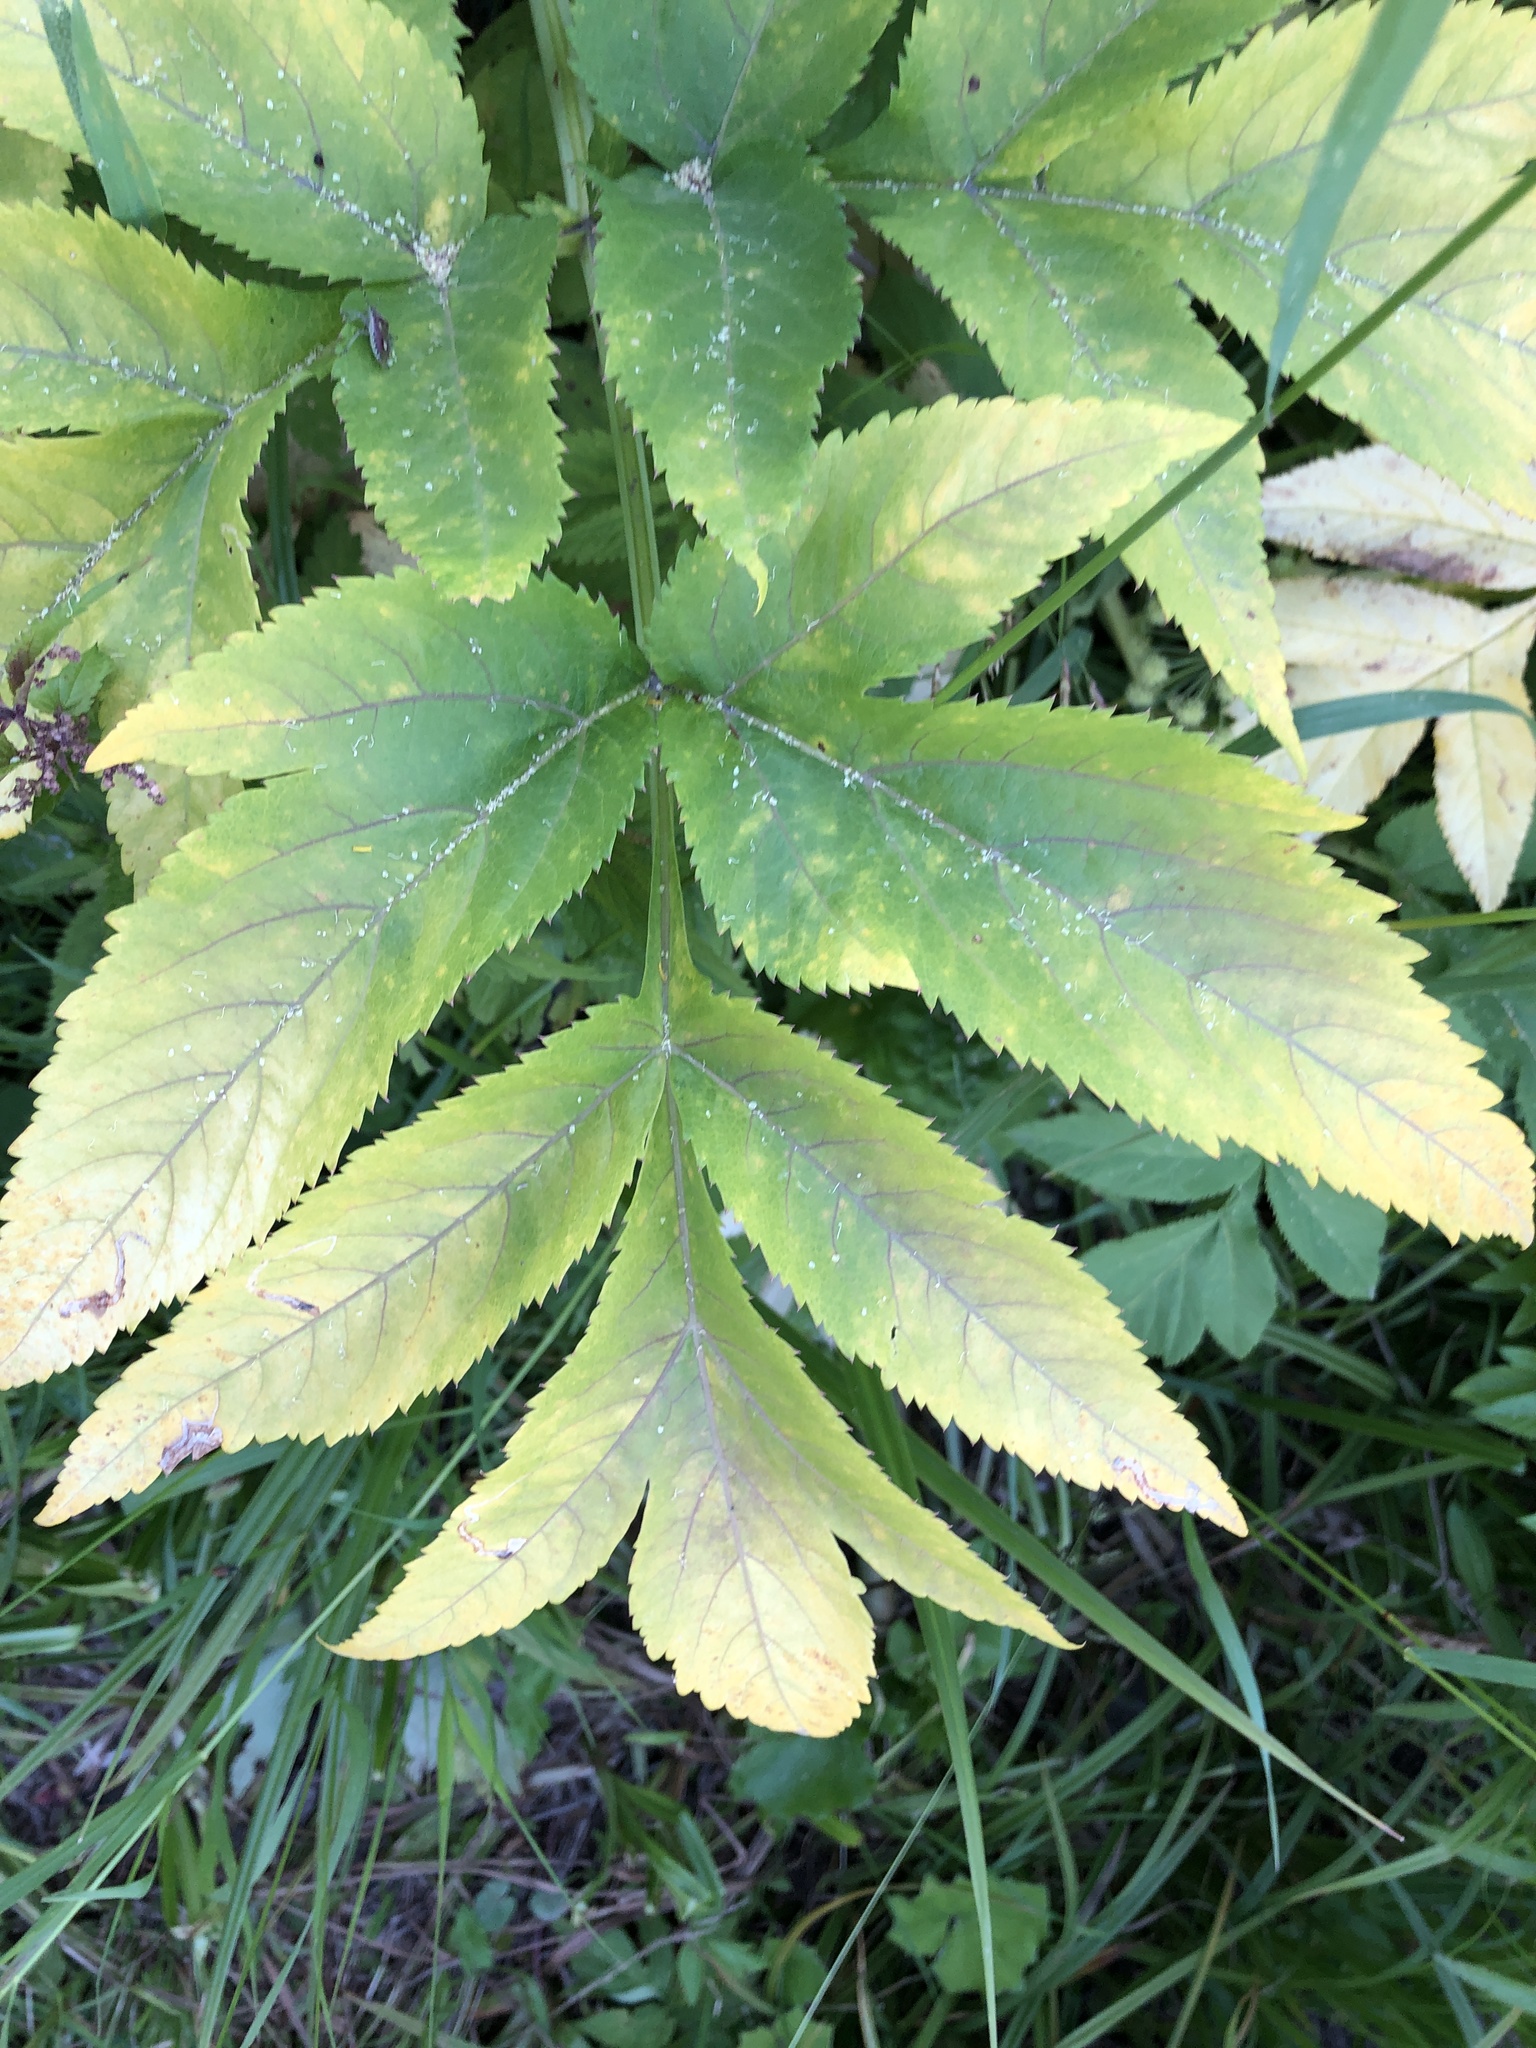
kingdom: Plantae
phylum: Tracheophyta
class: Magnoliopsida
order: Apiales
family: Apiaceae
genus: Angelica
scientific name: Angelica decurrens
